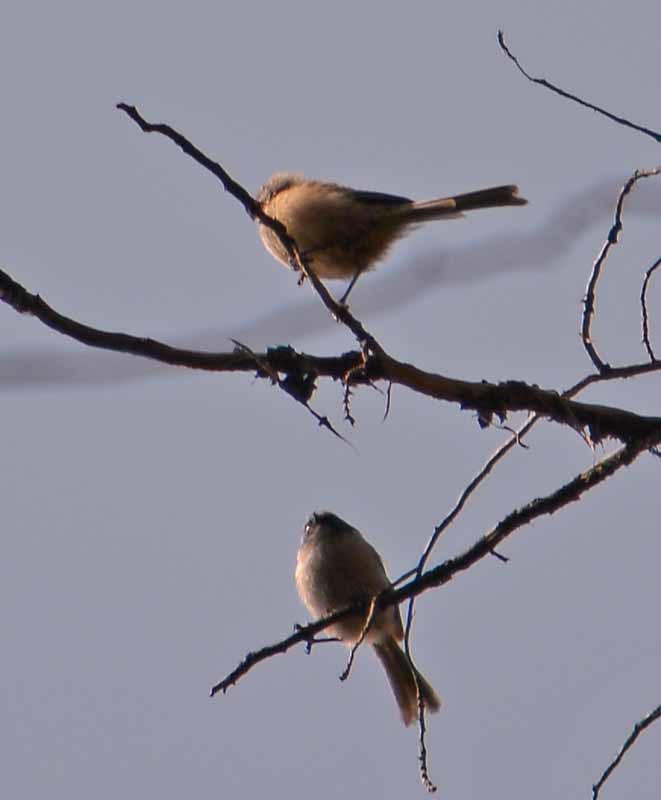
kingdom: Animalia
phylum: Chordata
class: Aves
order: Passeriformes
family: Aegithalidae
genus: Psaltriparus
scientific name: Psaltriparus minimus
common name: American bushtit
